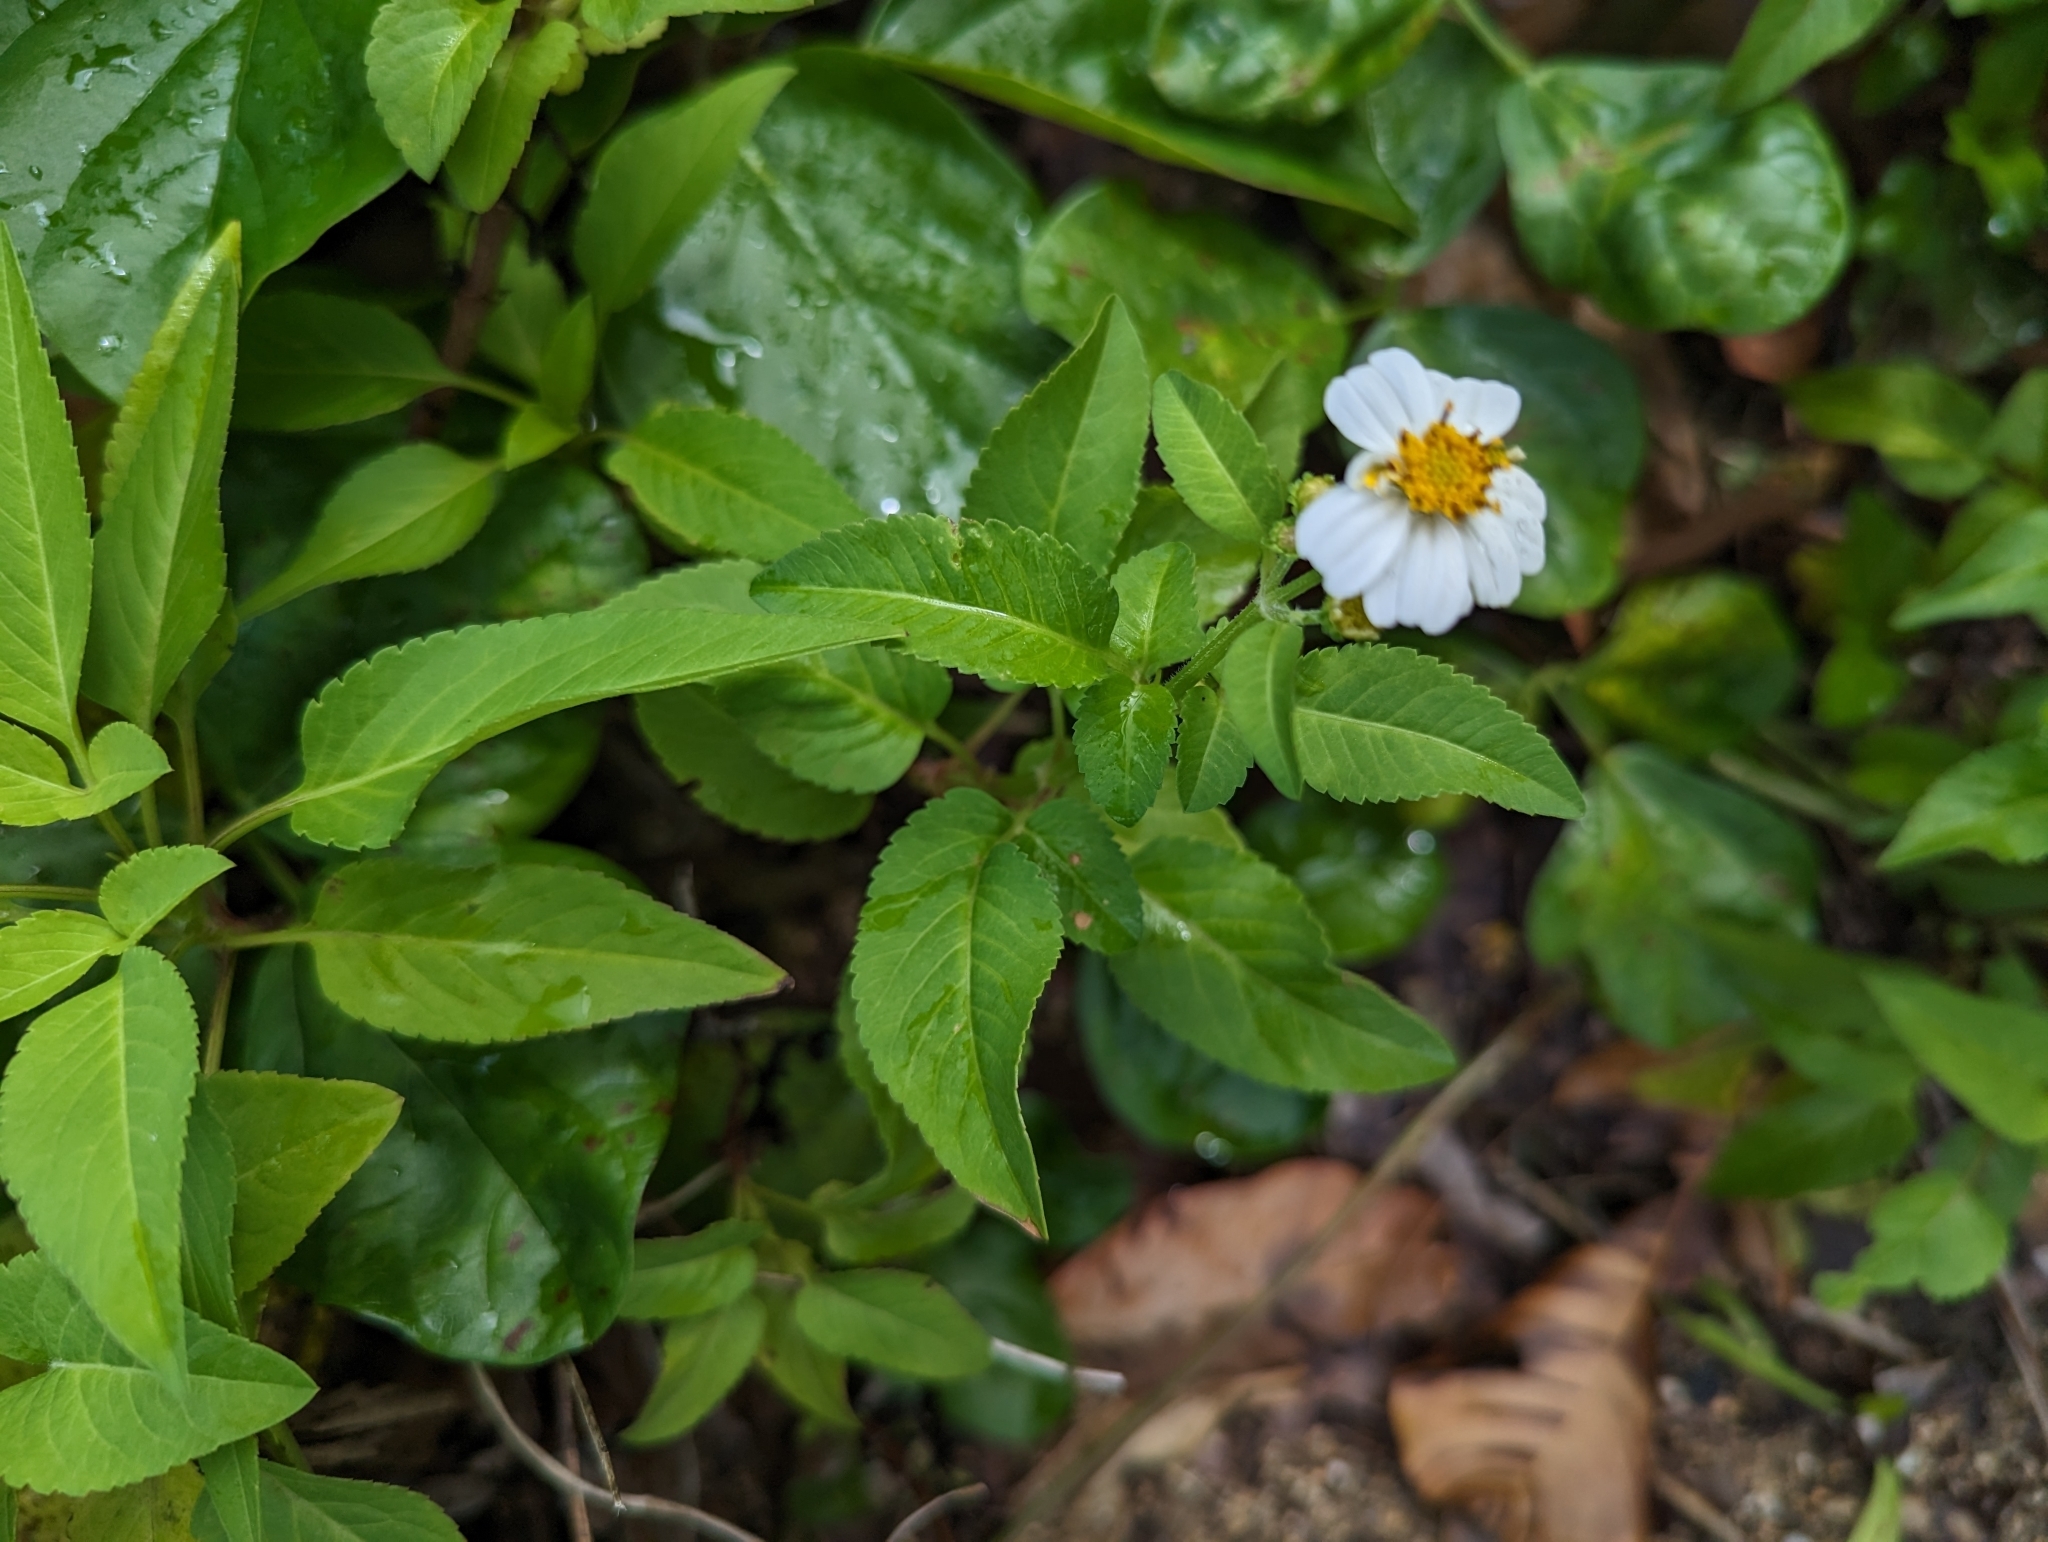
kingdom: Plantae
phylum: Tracheophyta
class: Magnoliopsida
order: Asterales
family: Asteraceae
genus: Bidens
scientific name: Bidens alba
